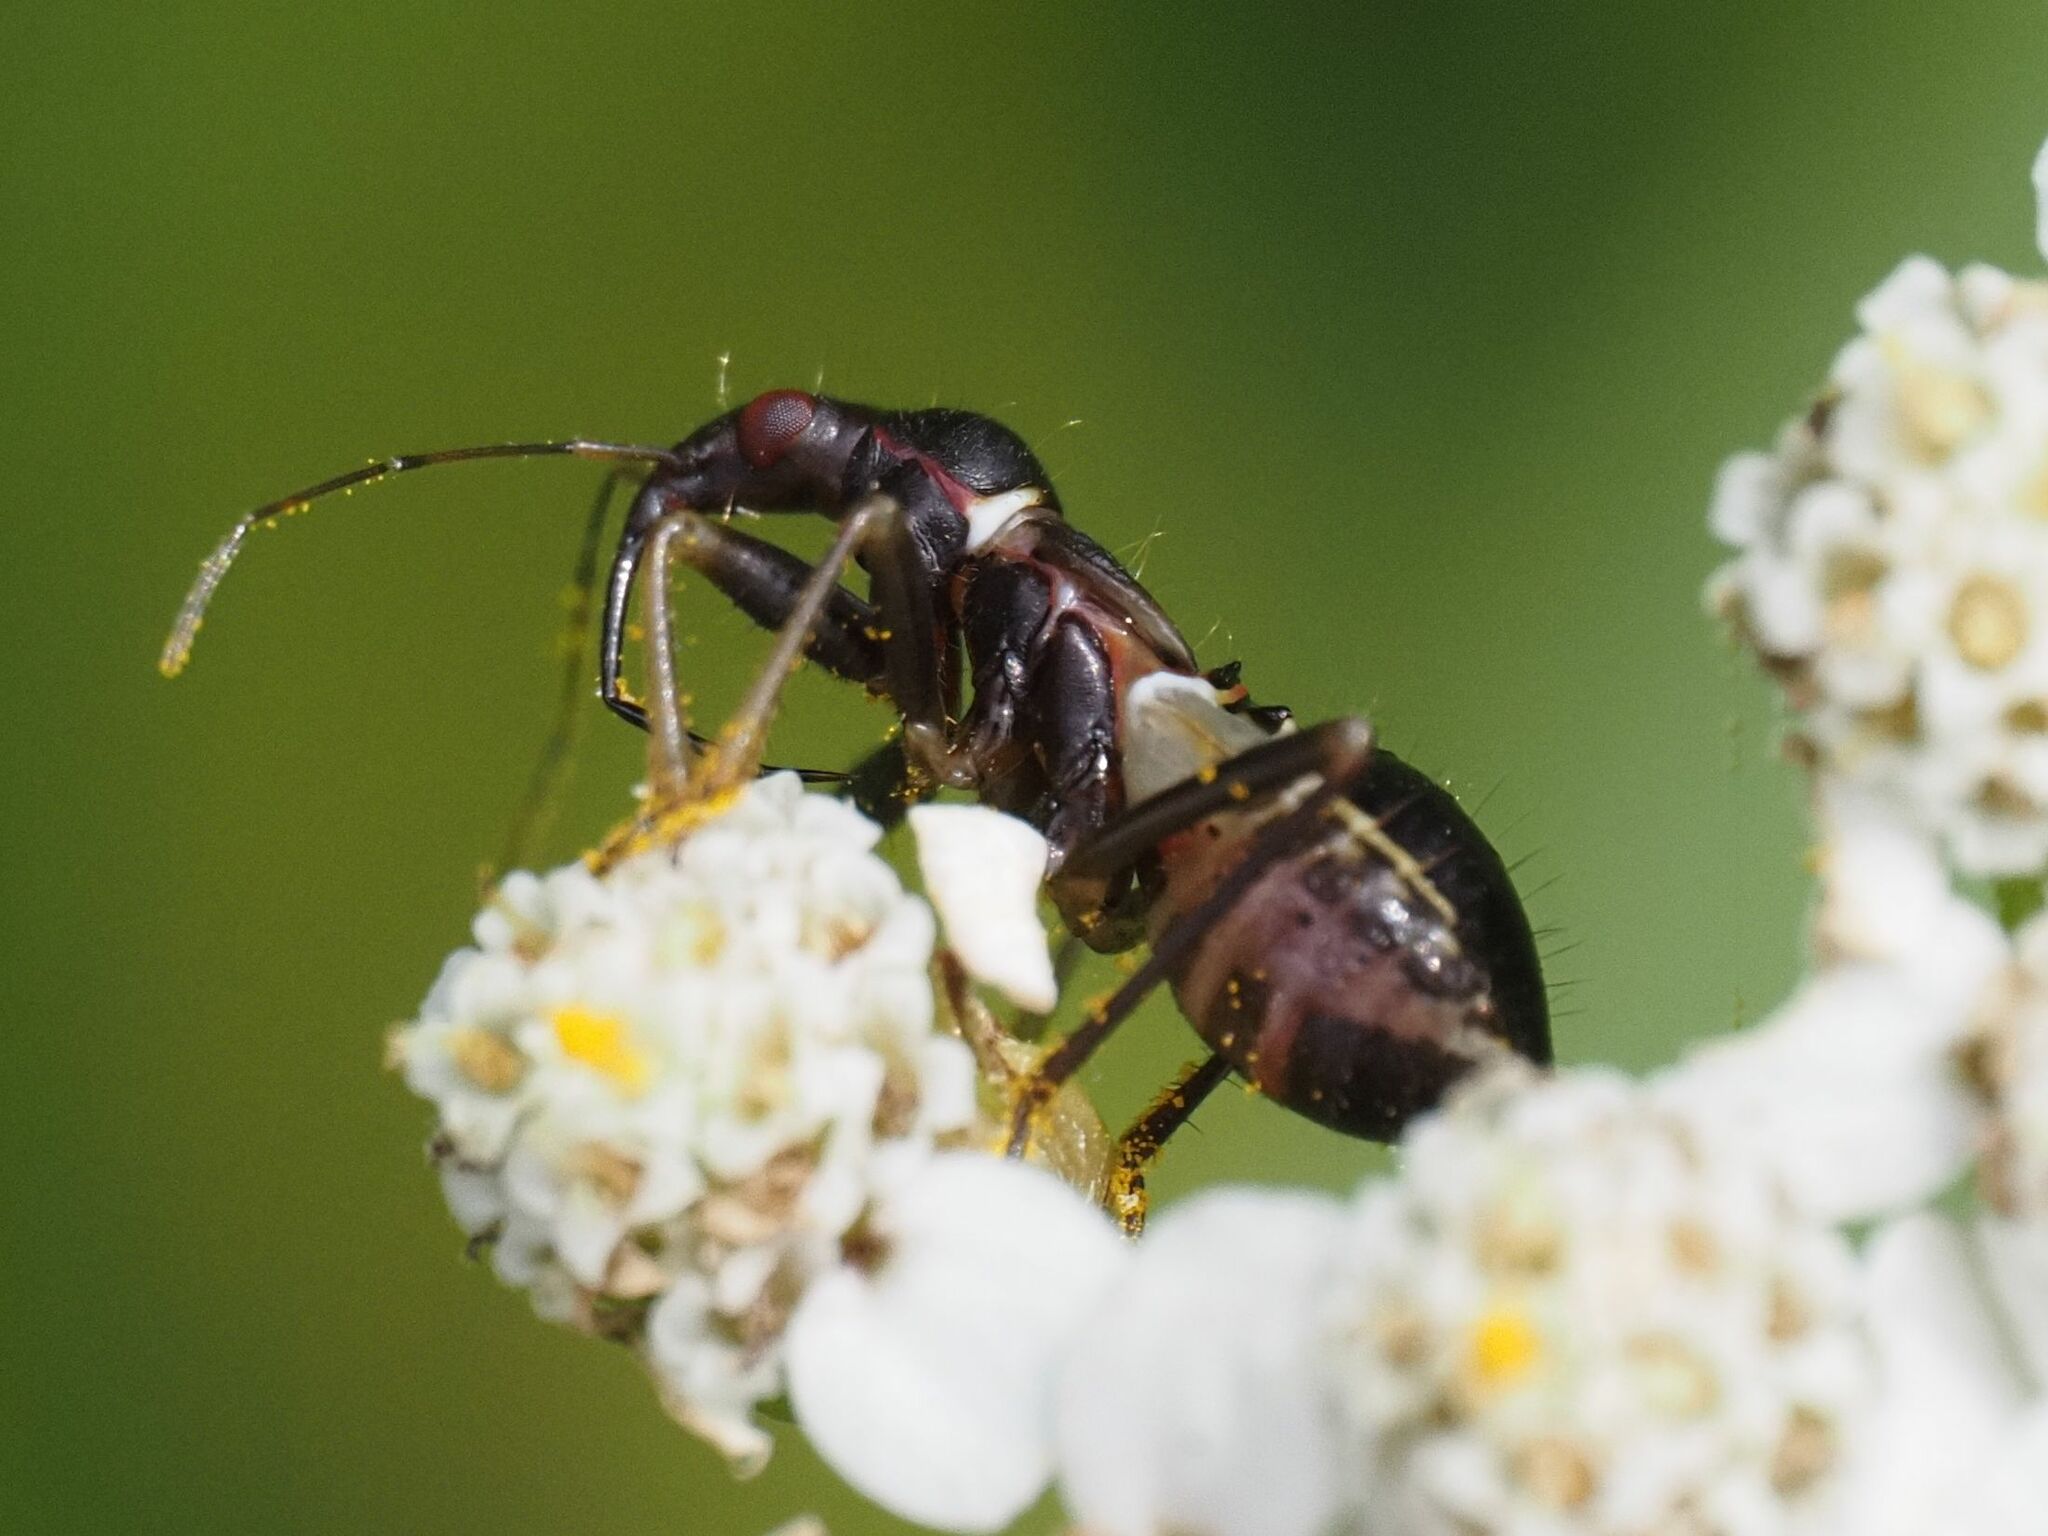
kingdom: Animalia
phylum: Arthropoda
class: Insecta
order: Hemiptera
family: Nabidae
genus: Himacerus
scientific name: Himacerus mirmicoides
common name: Ant damsel bug
